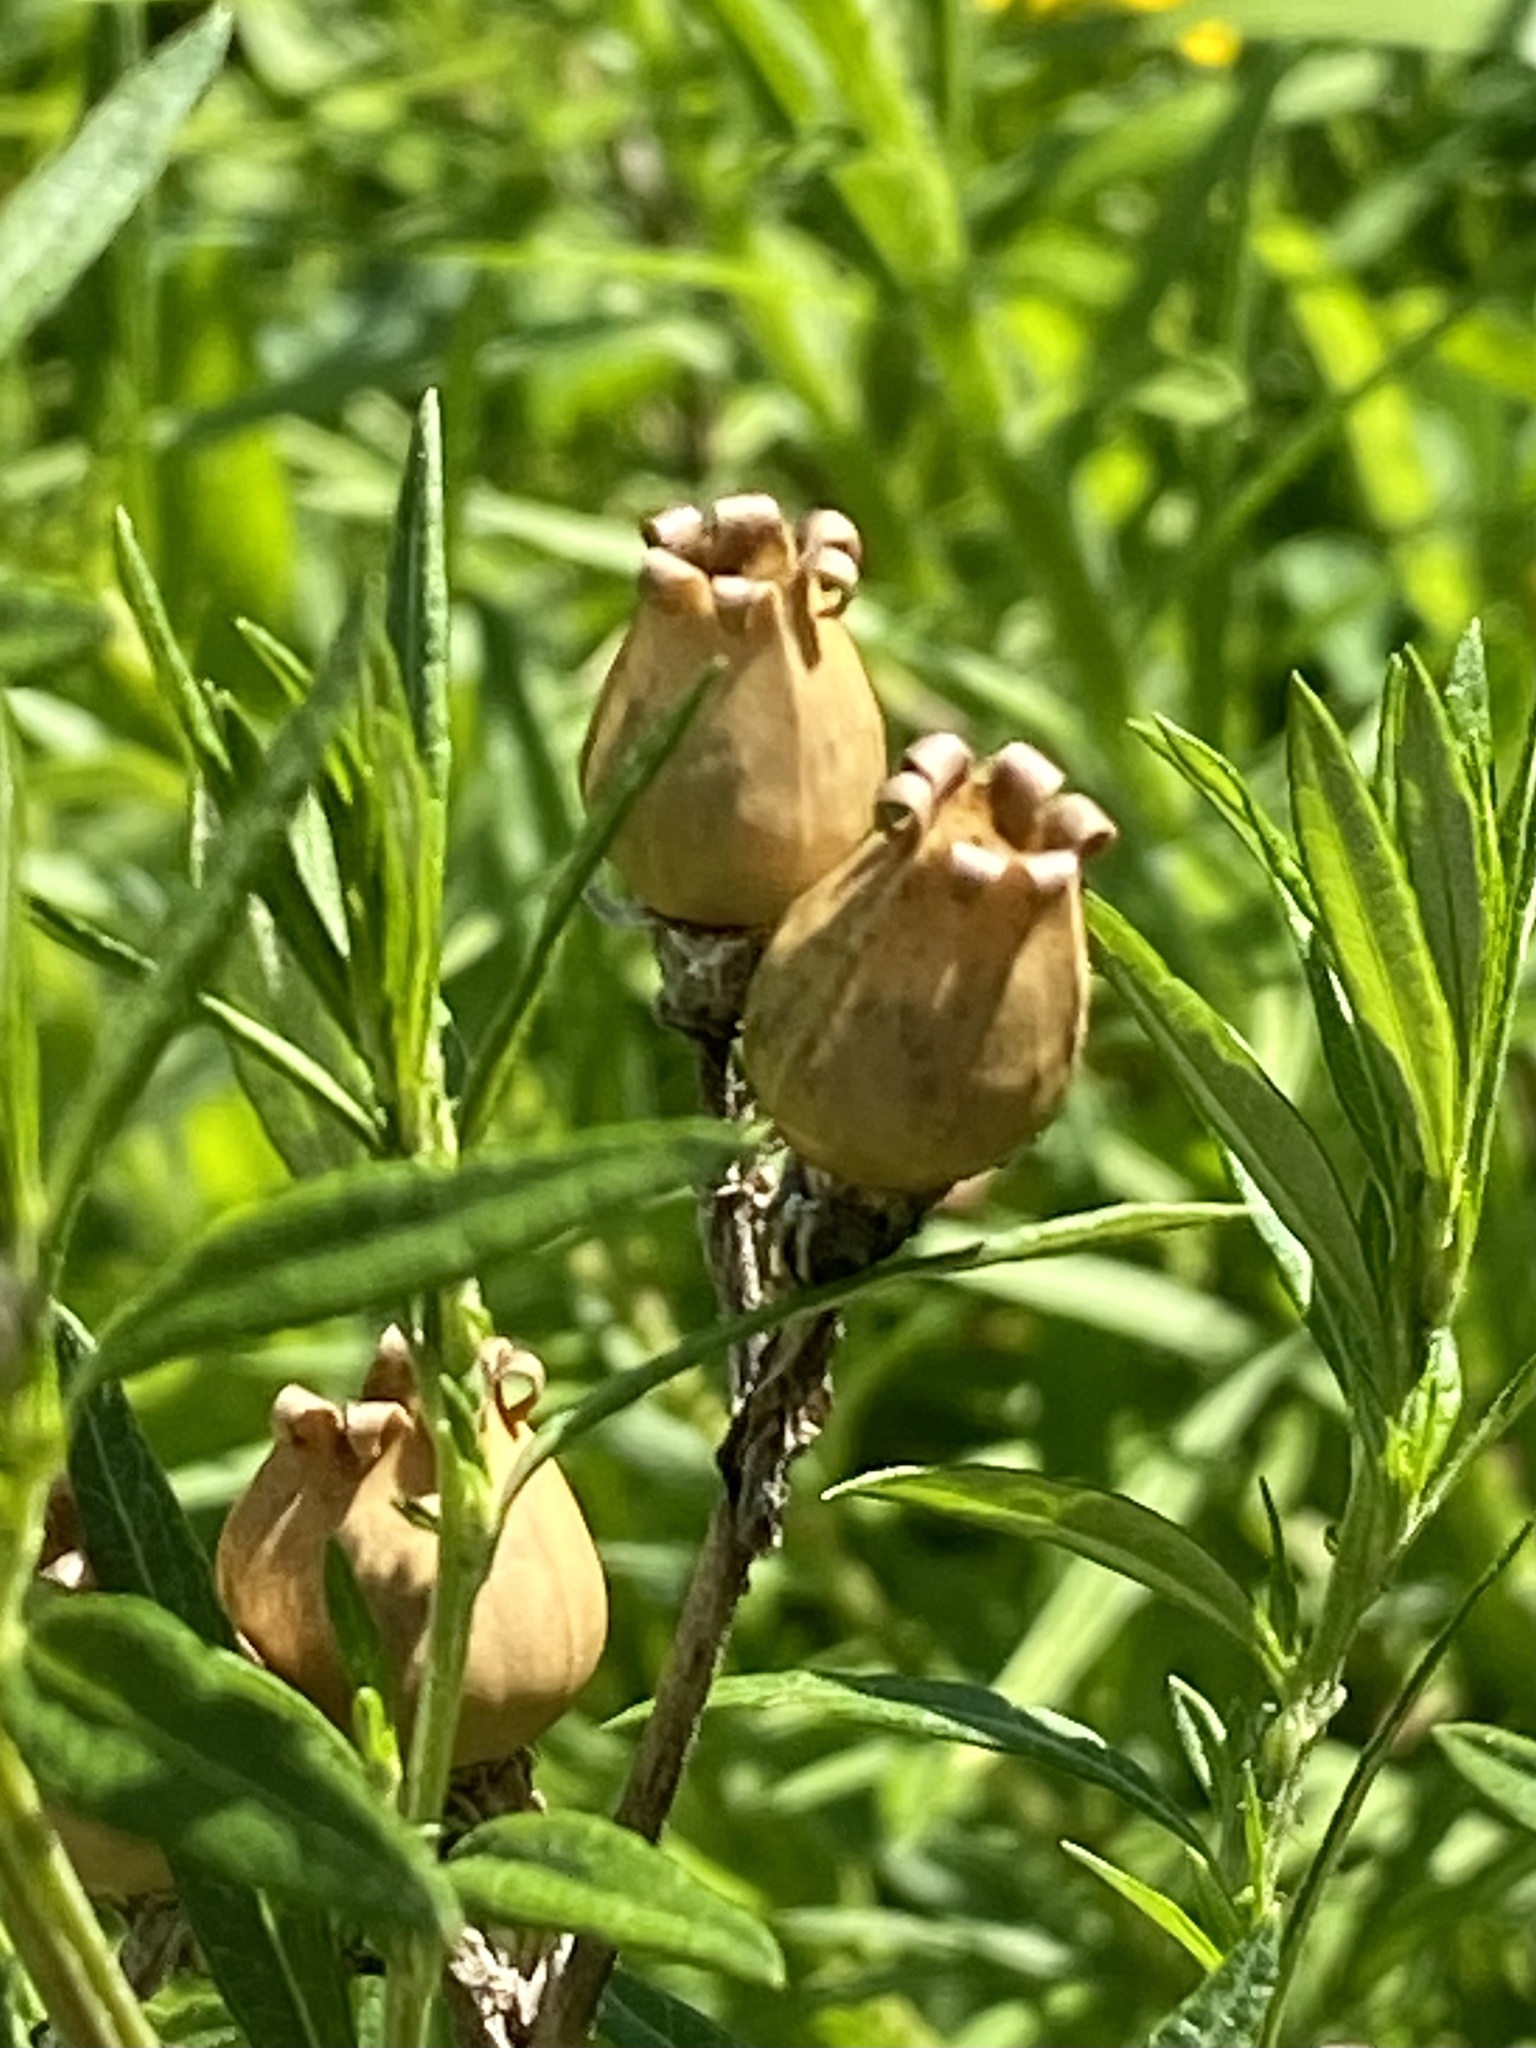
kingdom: Plantae
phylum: Tracheophyta
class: Magnoliopsida
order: Caryophyllales
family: Caryophyllaceae
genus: Silene
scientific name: Silene latifolia
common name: White campion
